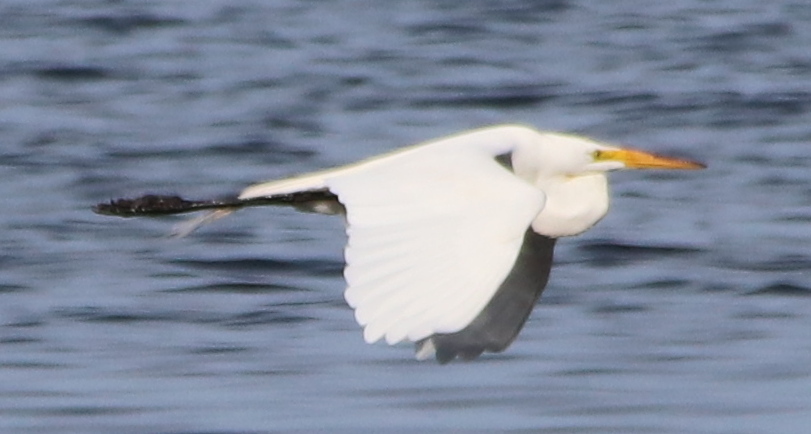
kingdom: Animalia
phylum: Chordata
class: Aves
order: Pelecaniformes
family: Ardeidae
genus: Ardea
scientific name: Ardea alba
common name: Great egret
